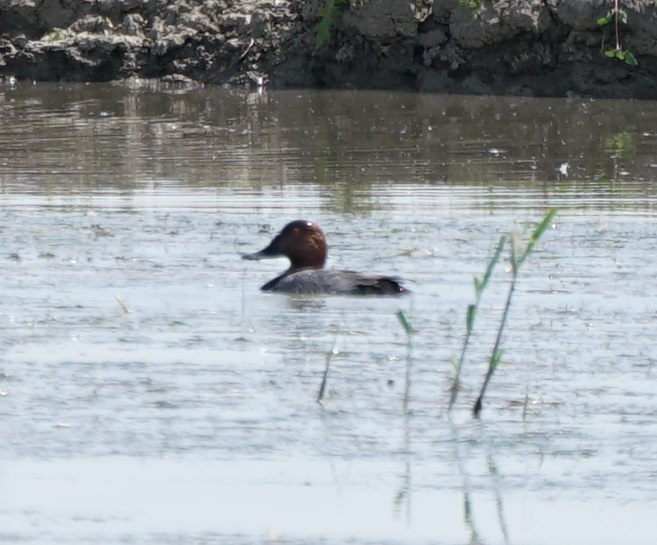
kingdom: Animalia
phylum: Chordata
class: Aves
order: Anseriformes
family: Anatidae
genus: Aythya
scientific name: Aythya ferina
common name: Common pochard
